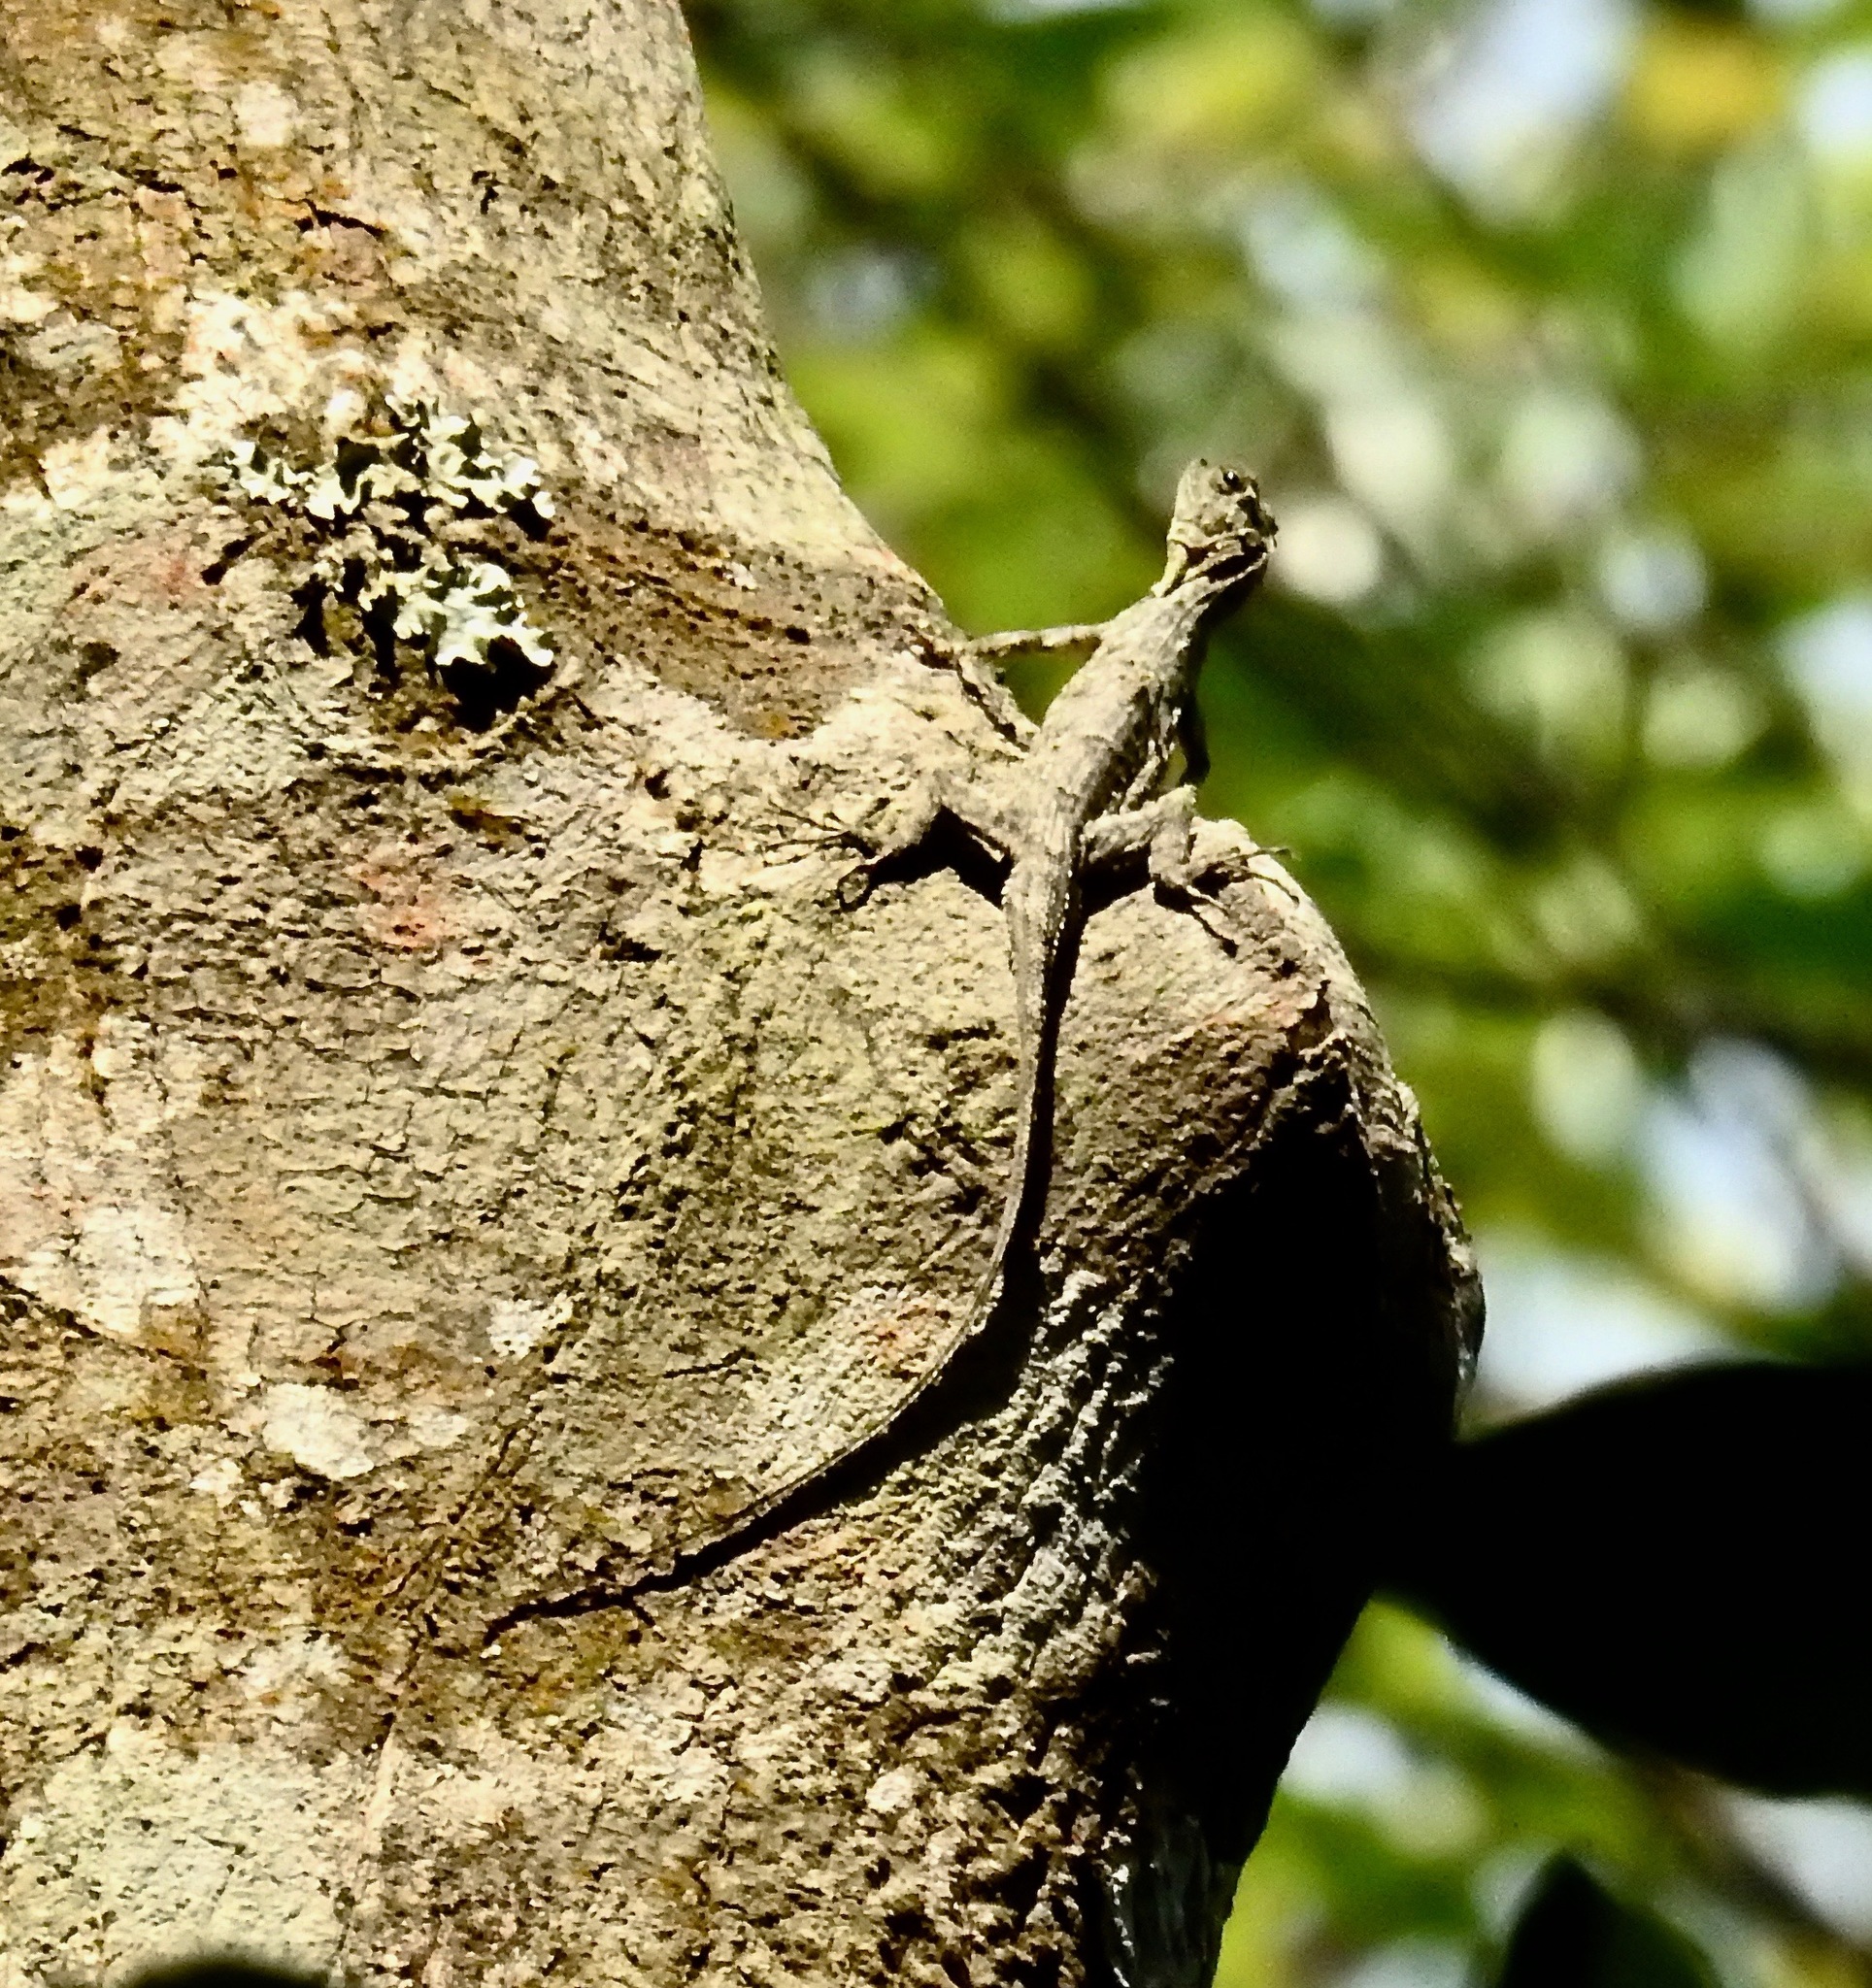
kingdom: Animalia
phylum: Chordata
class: Squamata
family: Agamidae
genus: Draco
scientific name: Draco maculatus
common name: Spotted flying dragon
